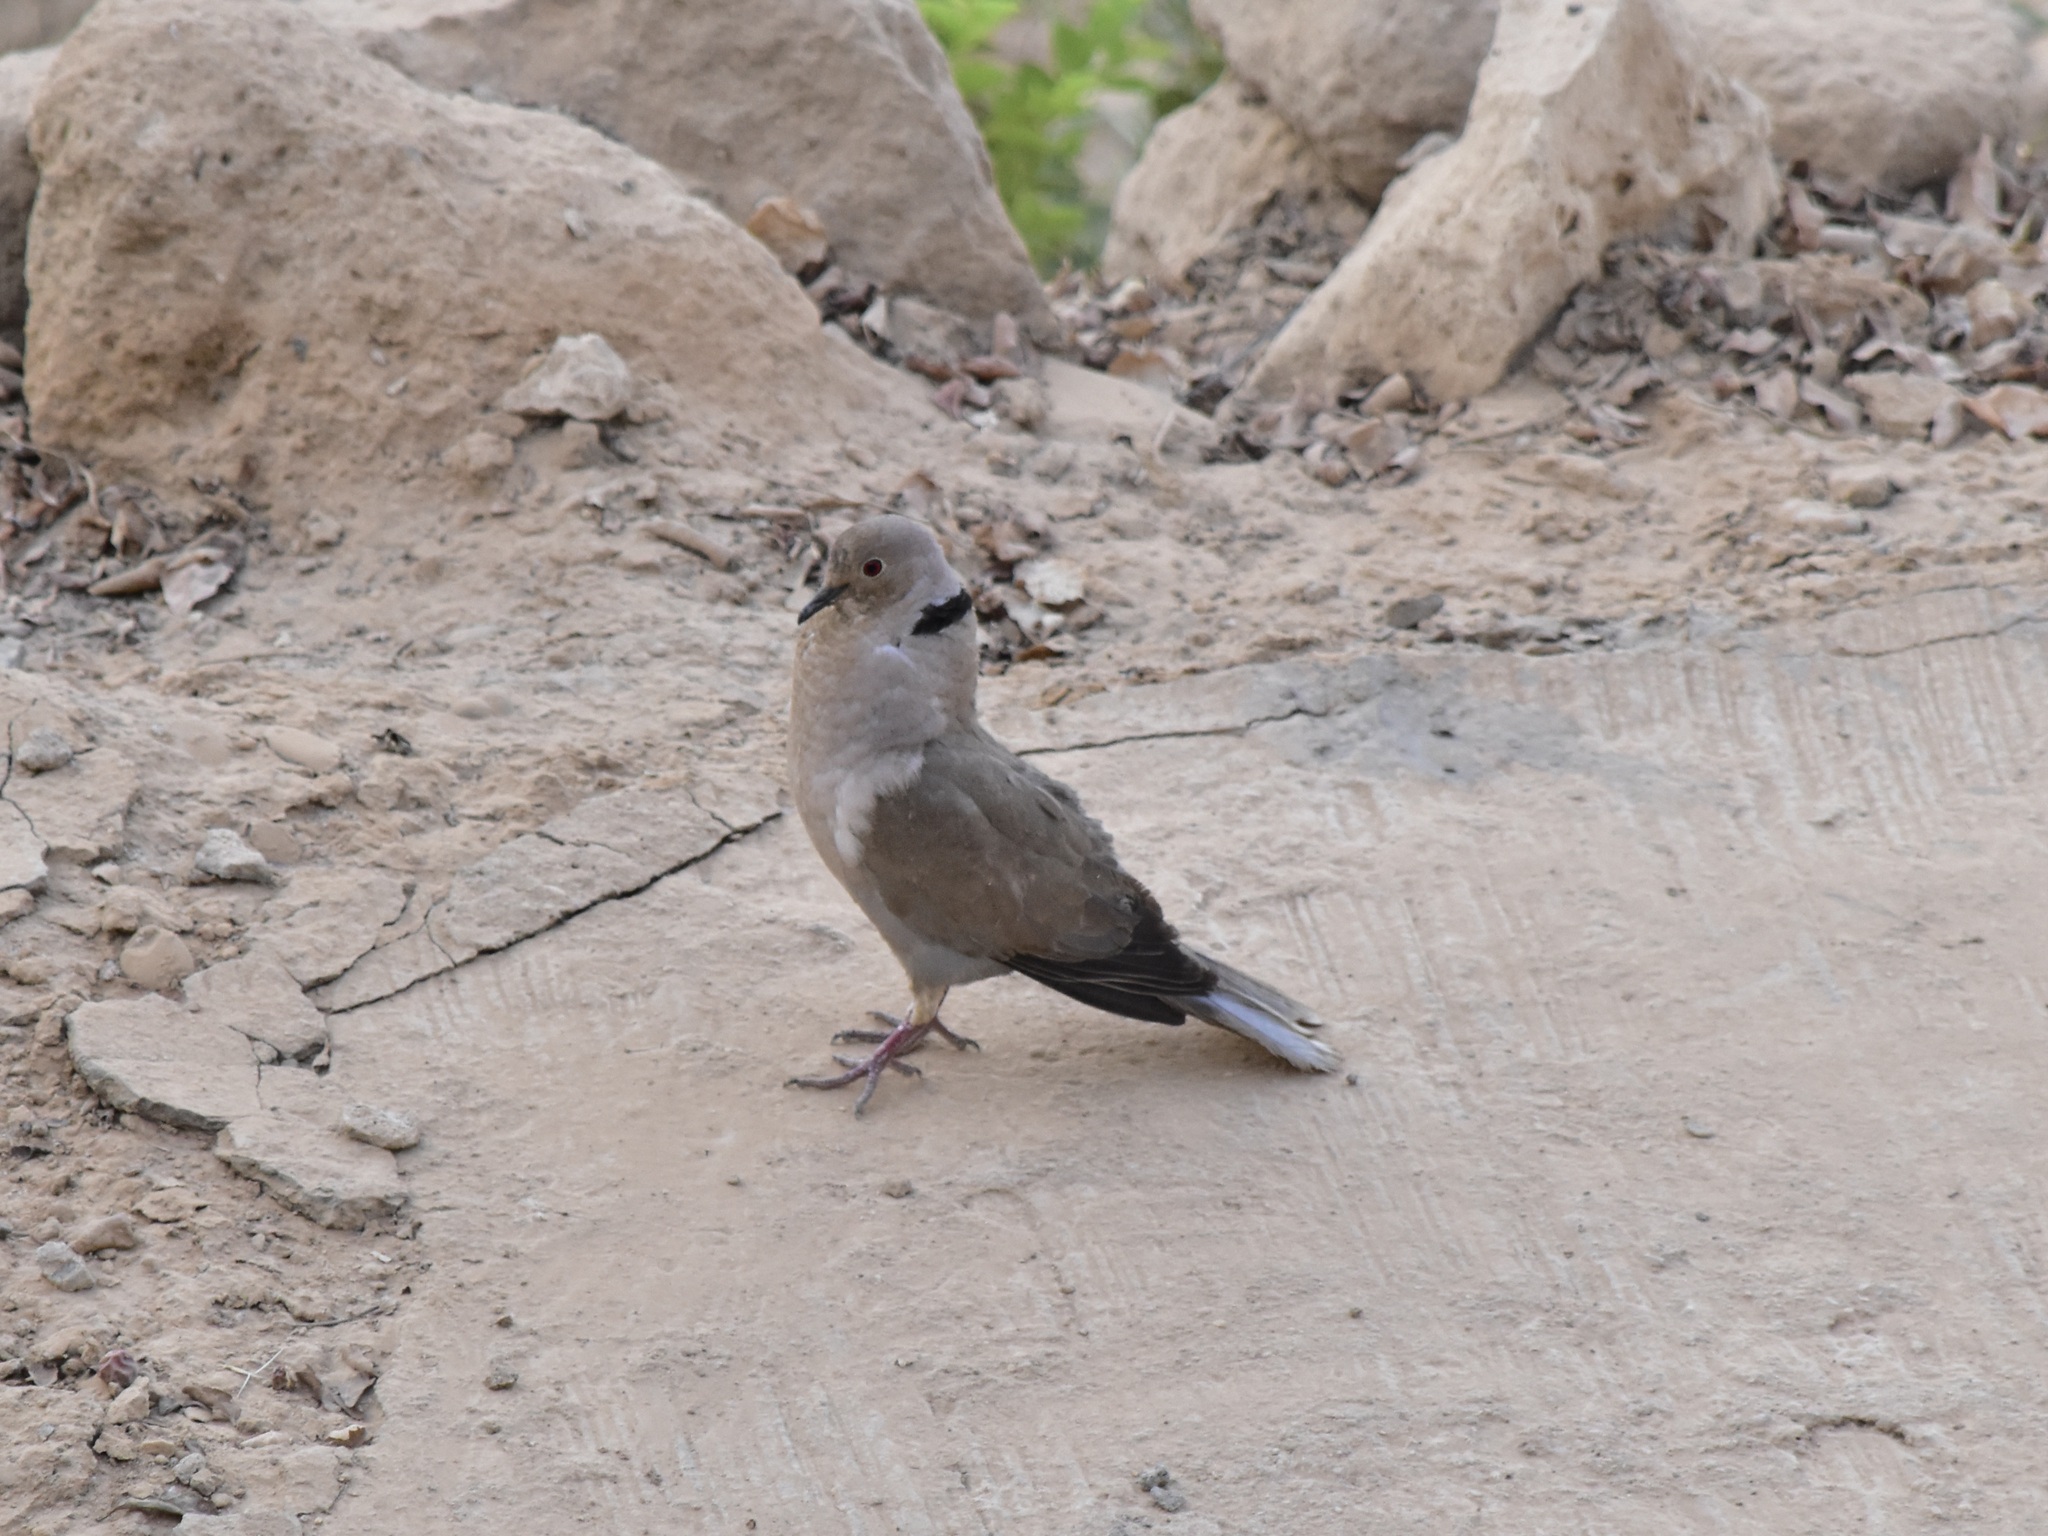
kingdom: Animalia
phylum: Chordata
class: Aves
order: Columbiformes
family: Columbidae
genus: Streptopelia
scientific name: Streptopelia decaocto
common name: Eurasian collared dove
